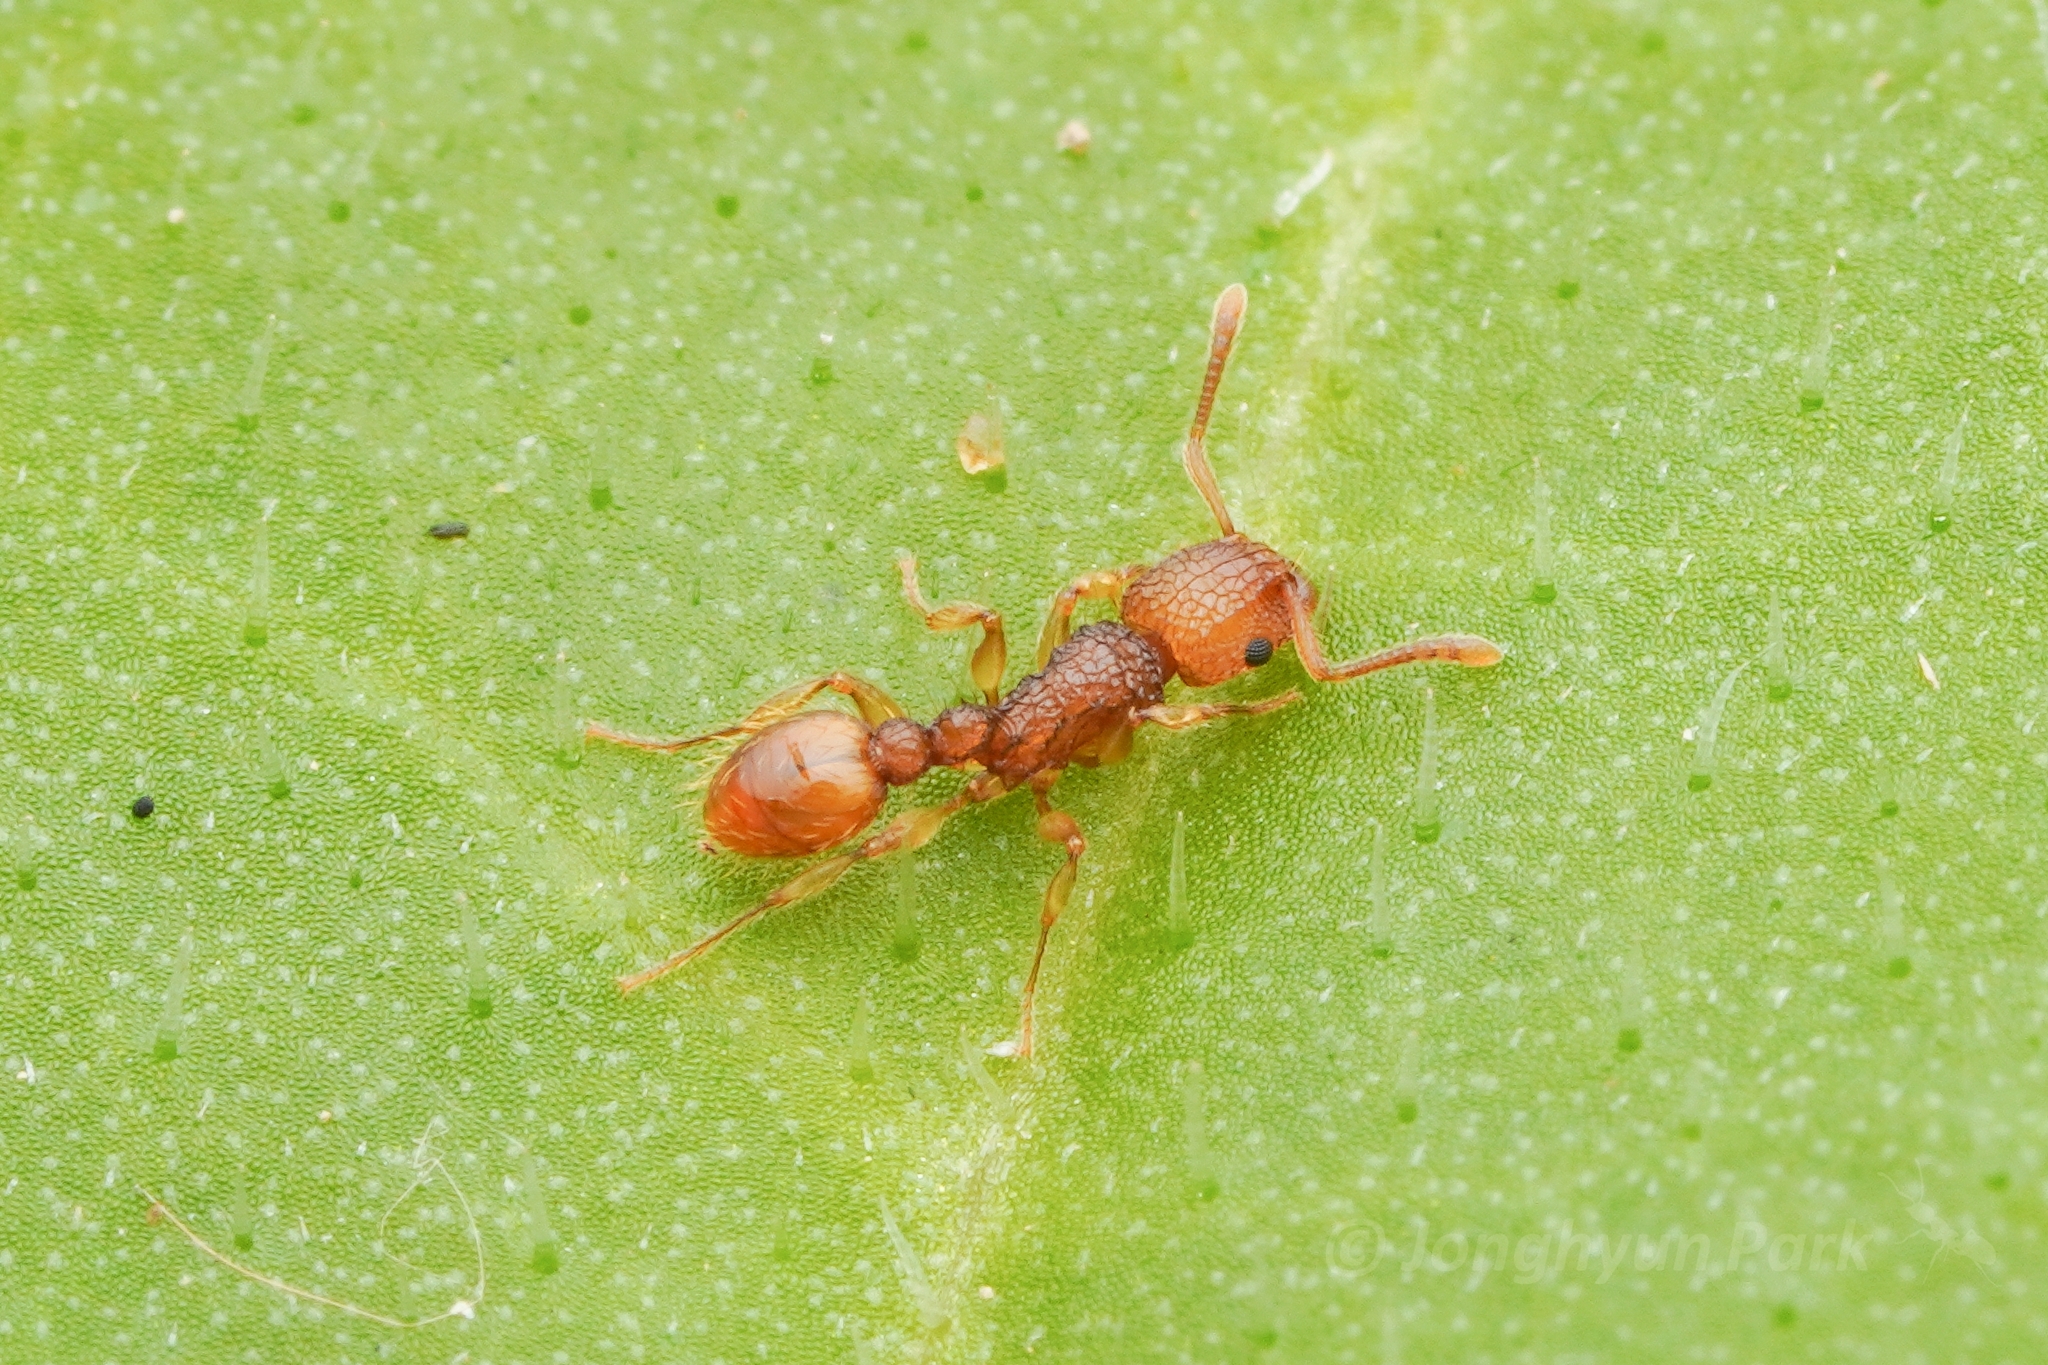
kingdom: Animalia
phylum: Arthropoda
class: Insecta
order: Hymenoptera
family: Formicidae
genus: Tetramorium
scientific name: Tetramorium nipponense
